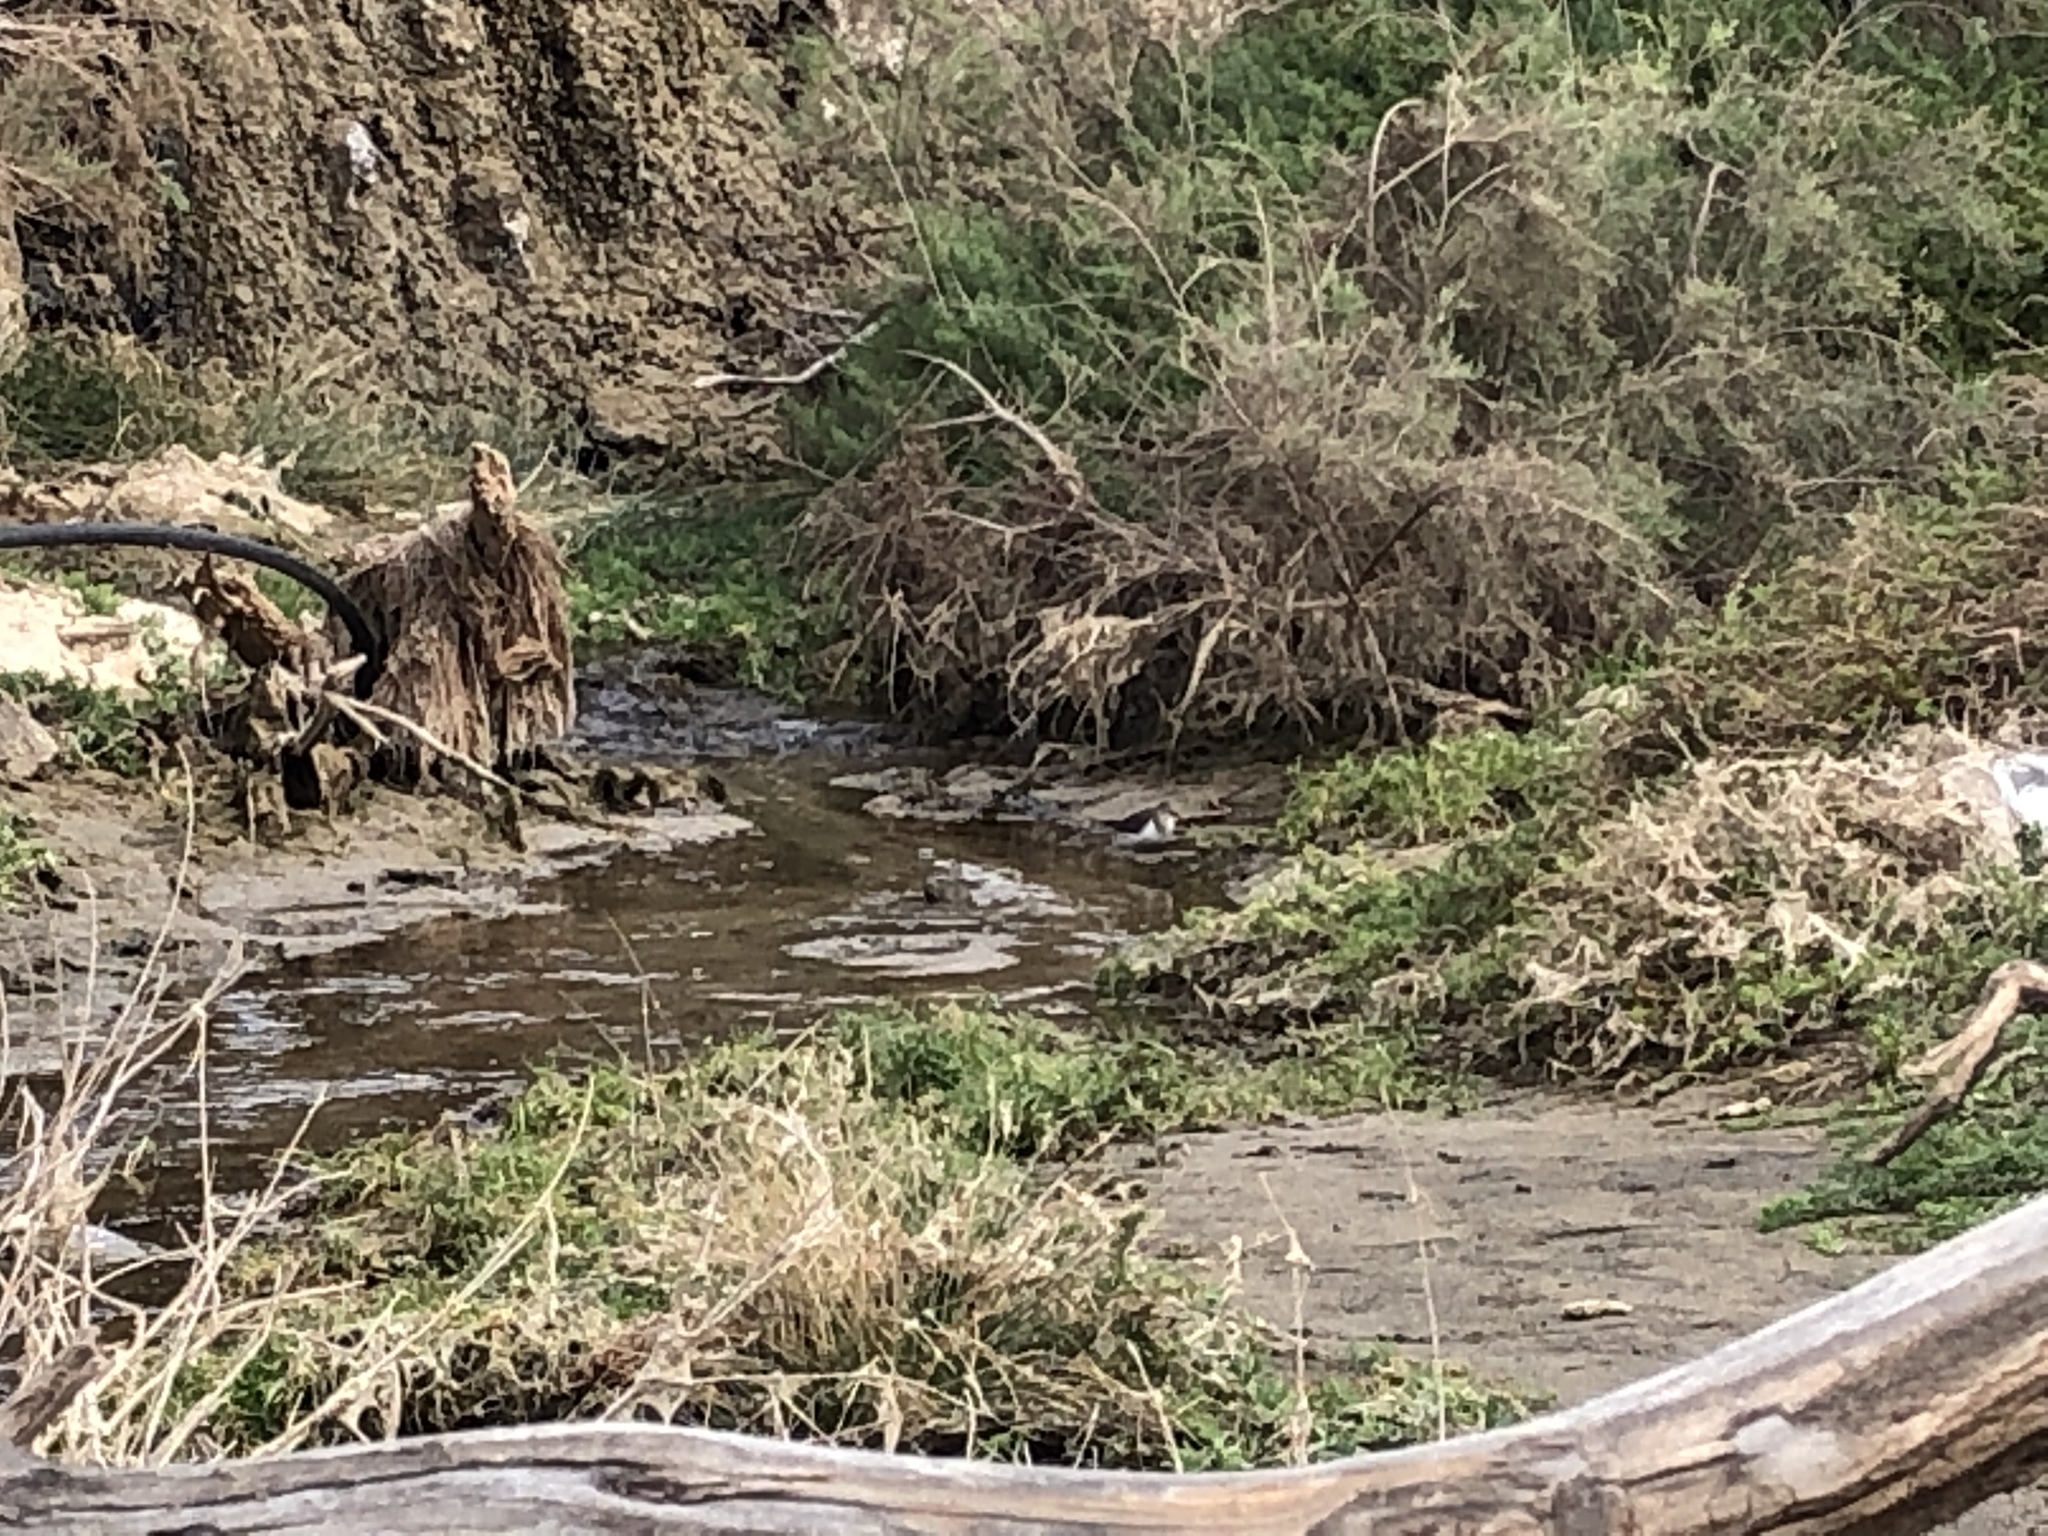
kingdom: Animalia
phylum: Chordata
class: Aves
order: Charadriiformes
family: Scolopacidae
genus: Actitis
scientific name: Actitis hypoleucos
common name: Common sandpiper
